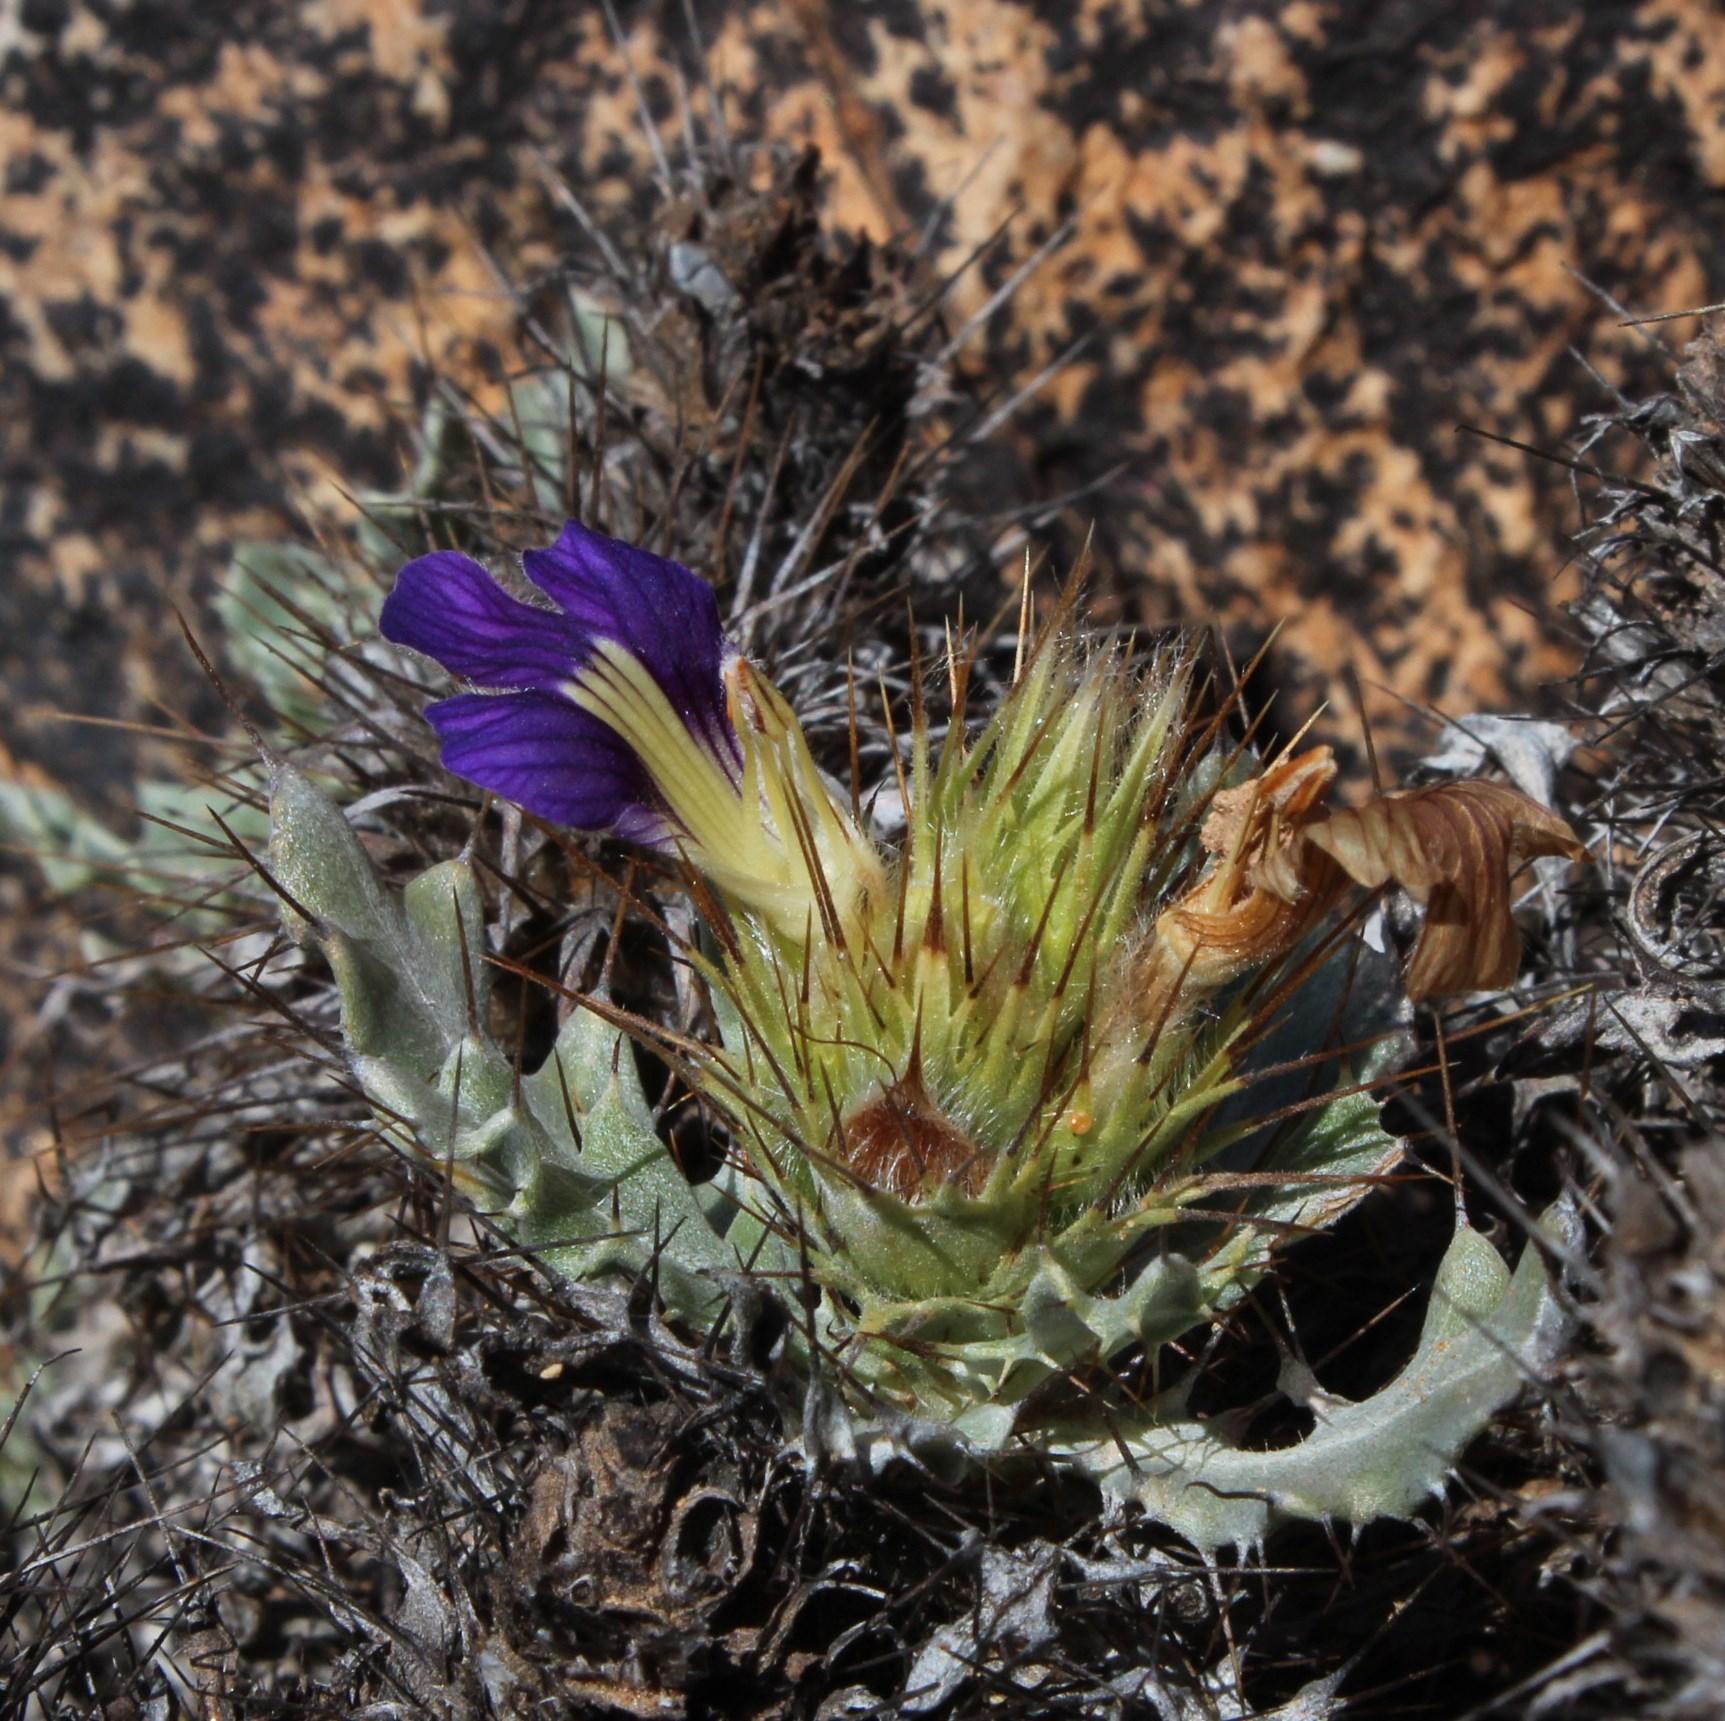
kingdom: Plantae
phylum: Tracheophyta
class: Magnoliopsida
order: Lamiales
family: Acanthaceae
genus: Acanthopsis
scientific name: Acanthopsis ludoviciana
